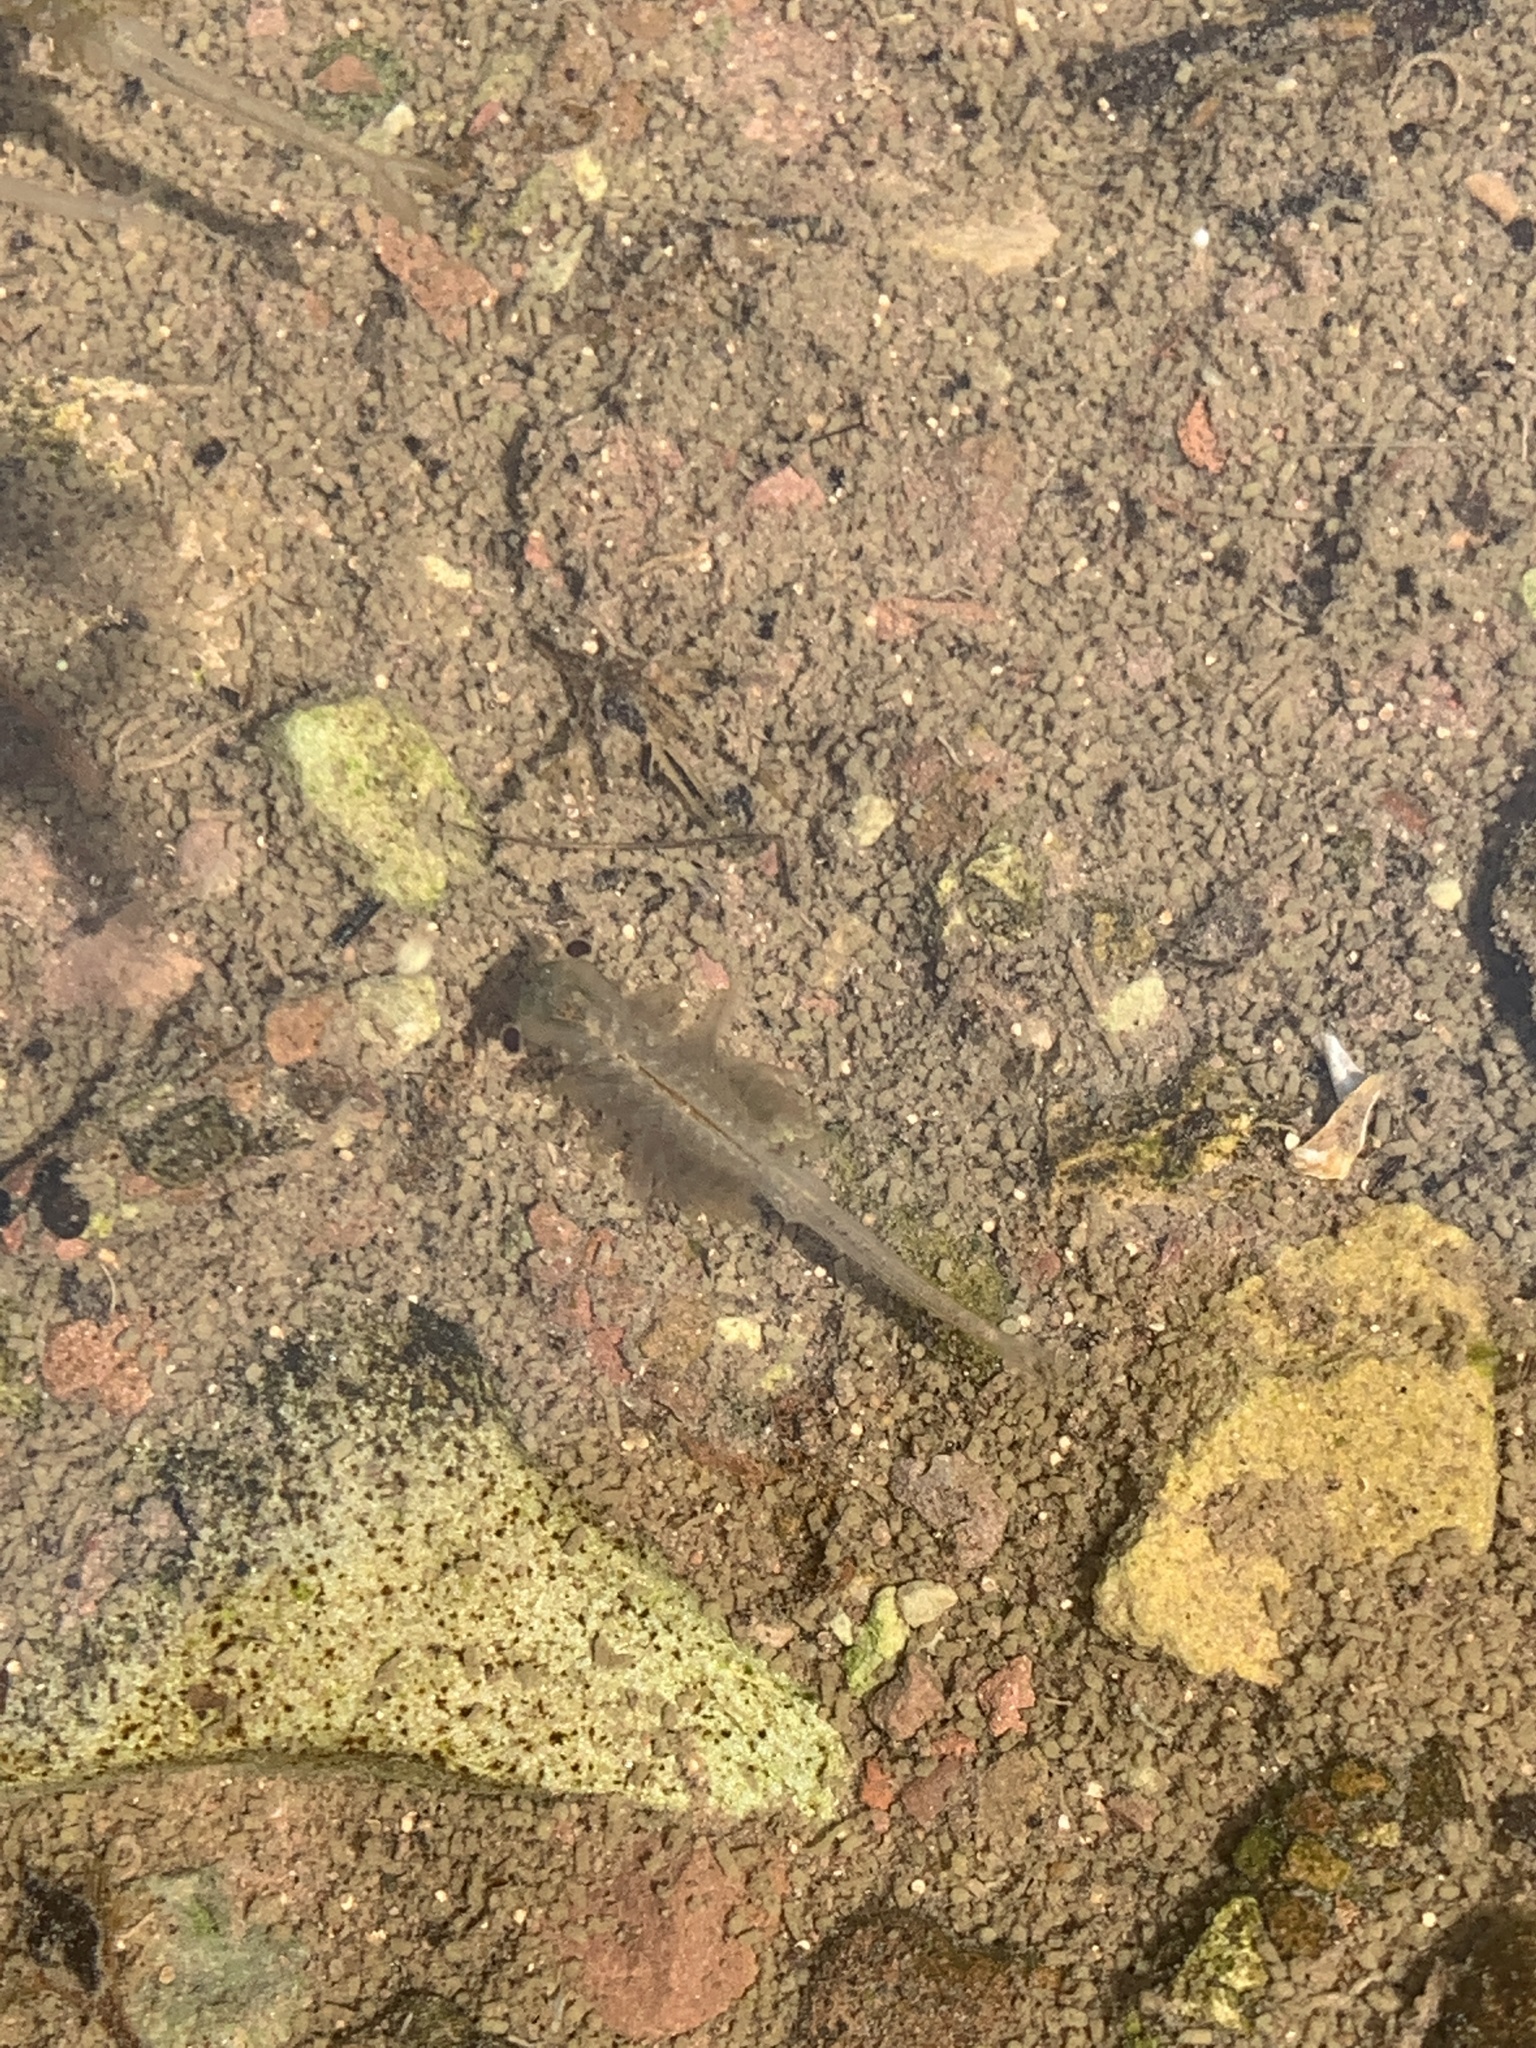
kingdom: Animalia
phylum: Arthropoda
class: Branchiopoda
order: Anostraca
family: Branchinectidae
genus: Branchinecta
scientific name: Branchinecta paludosa
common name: Circumpolar fairy shrimp
